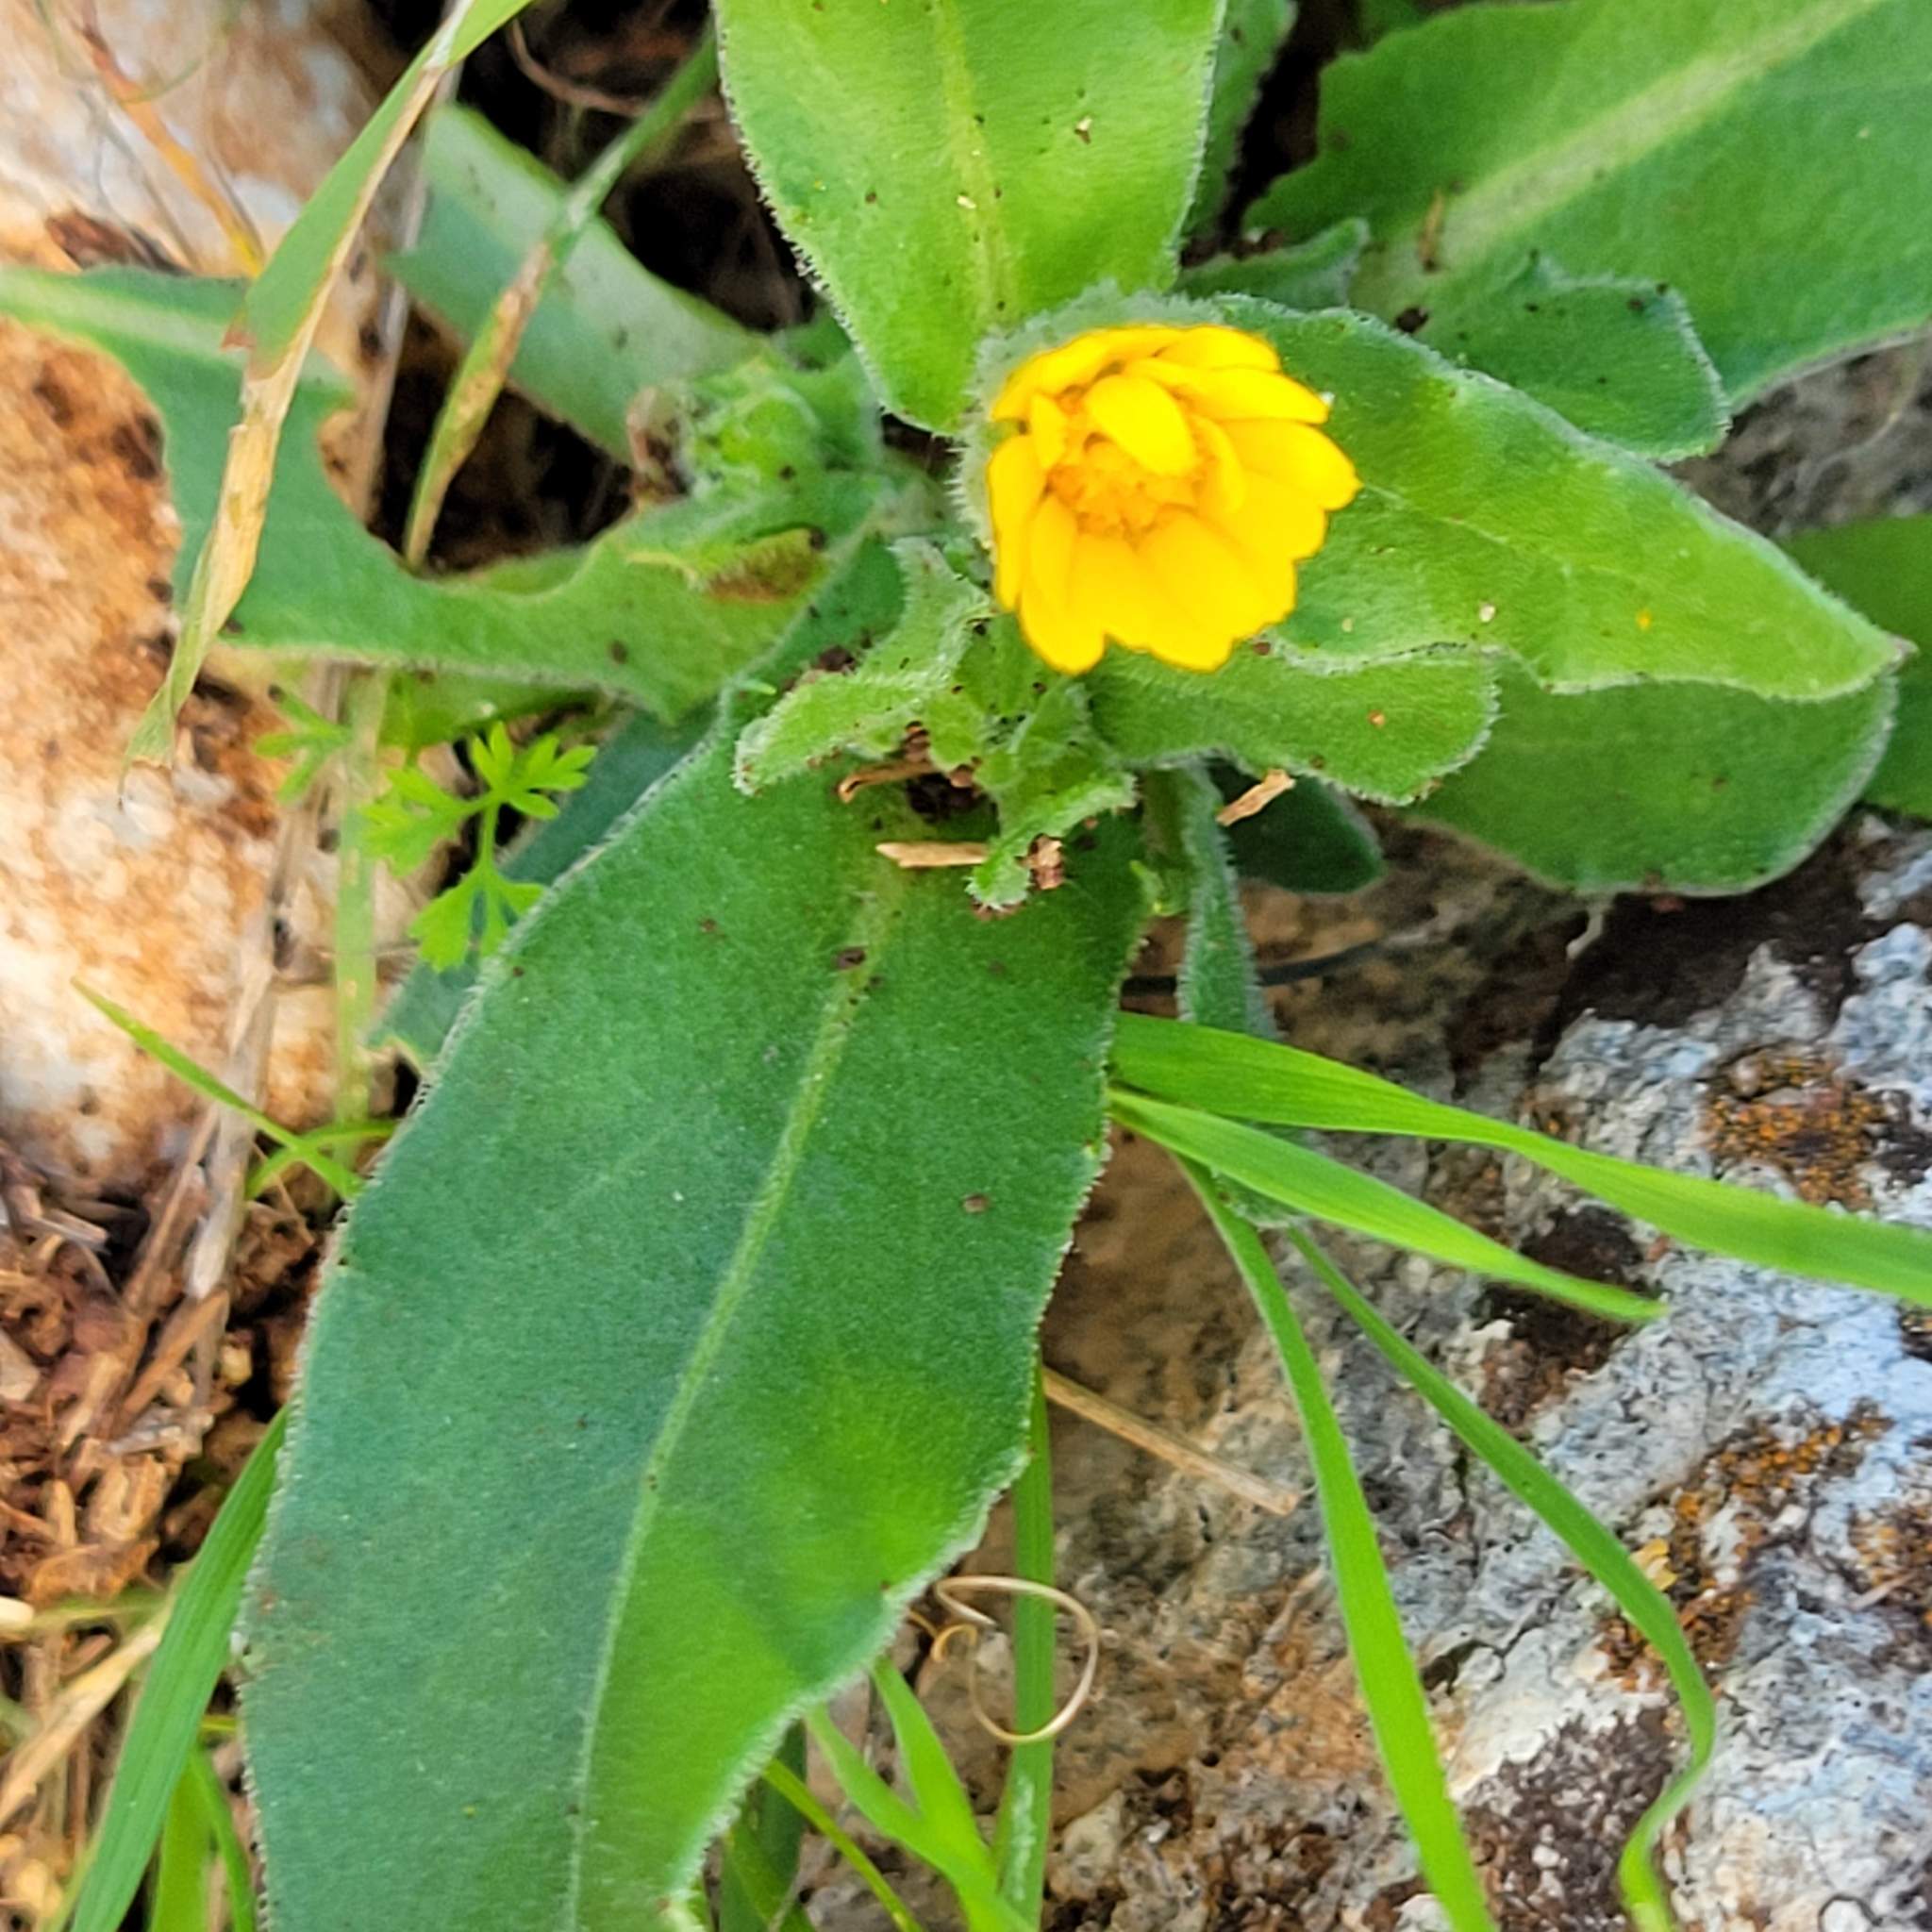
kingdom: Plantae
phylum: Tracheophyta
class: Magnoliopsida
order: Asterales
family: Asteraceae
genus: Calendula
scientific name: Calendula arvensis
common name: Field marigold
